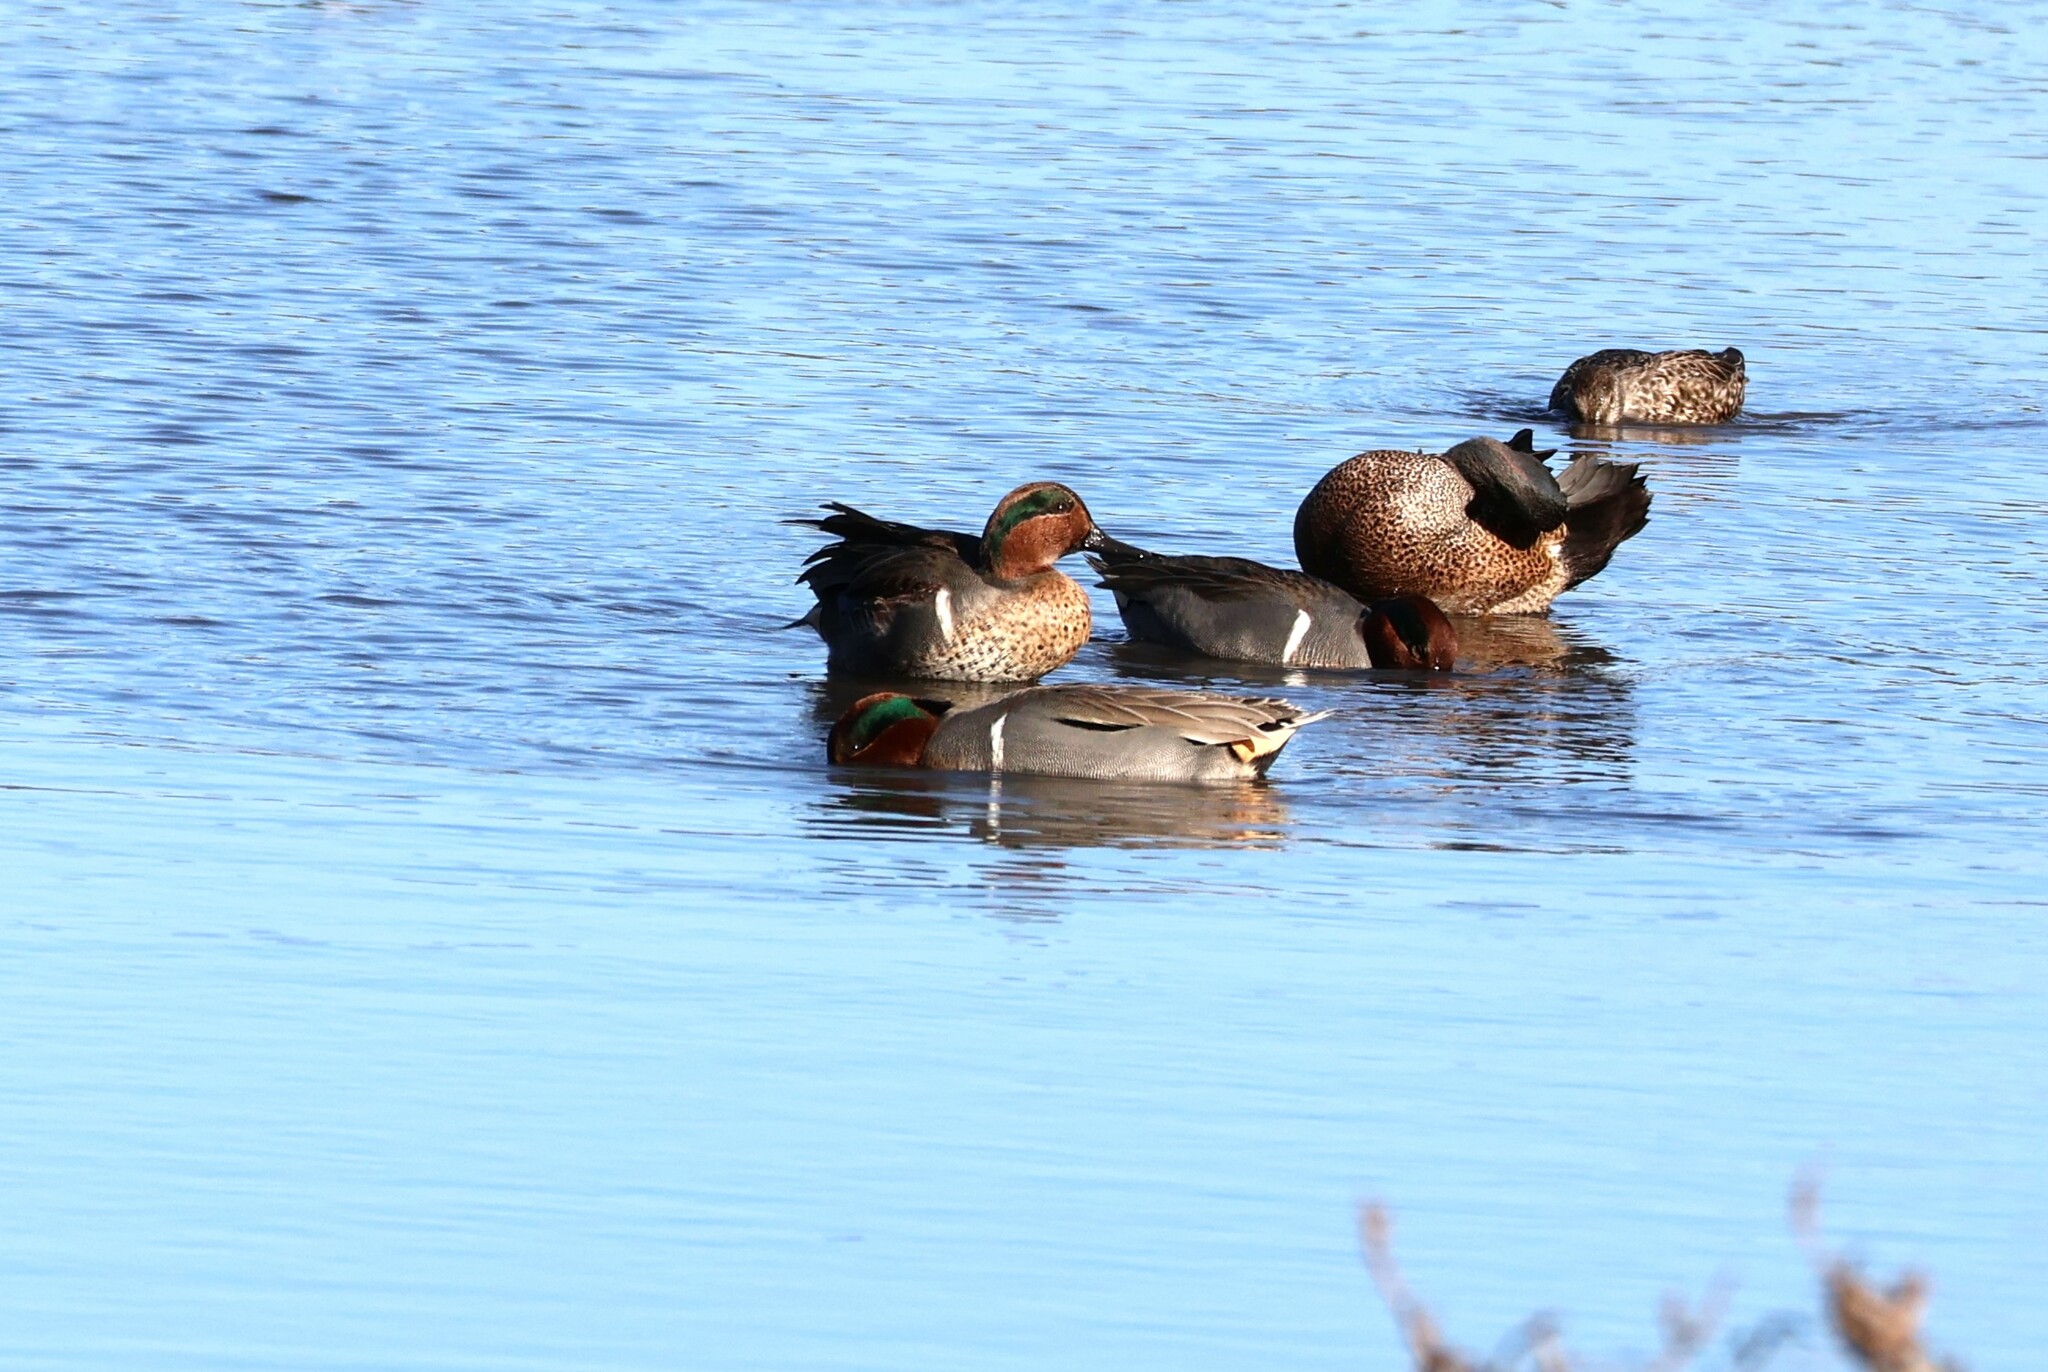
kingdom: Animalia
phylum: Chordata
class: Aves
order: Anseriformes
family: Anatidae
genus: Anas
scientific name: Anas crecca
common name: Eurasian teal
